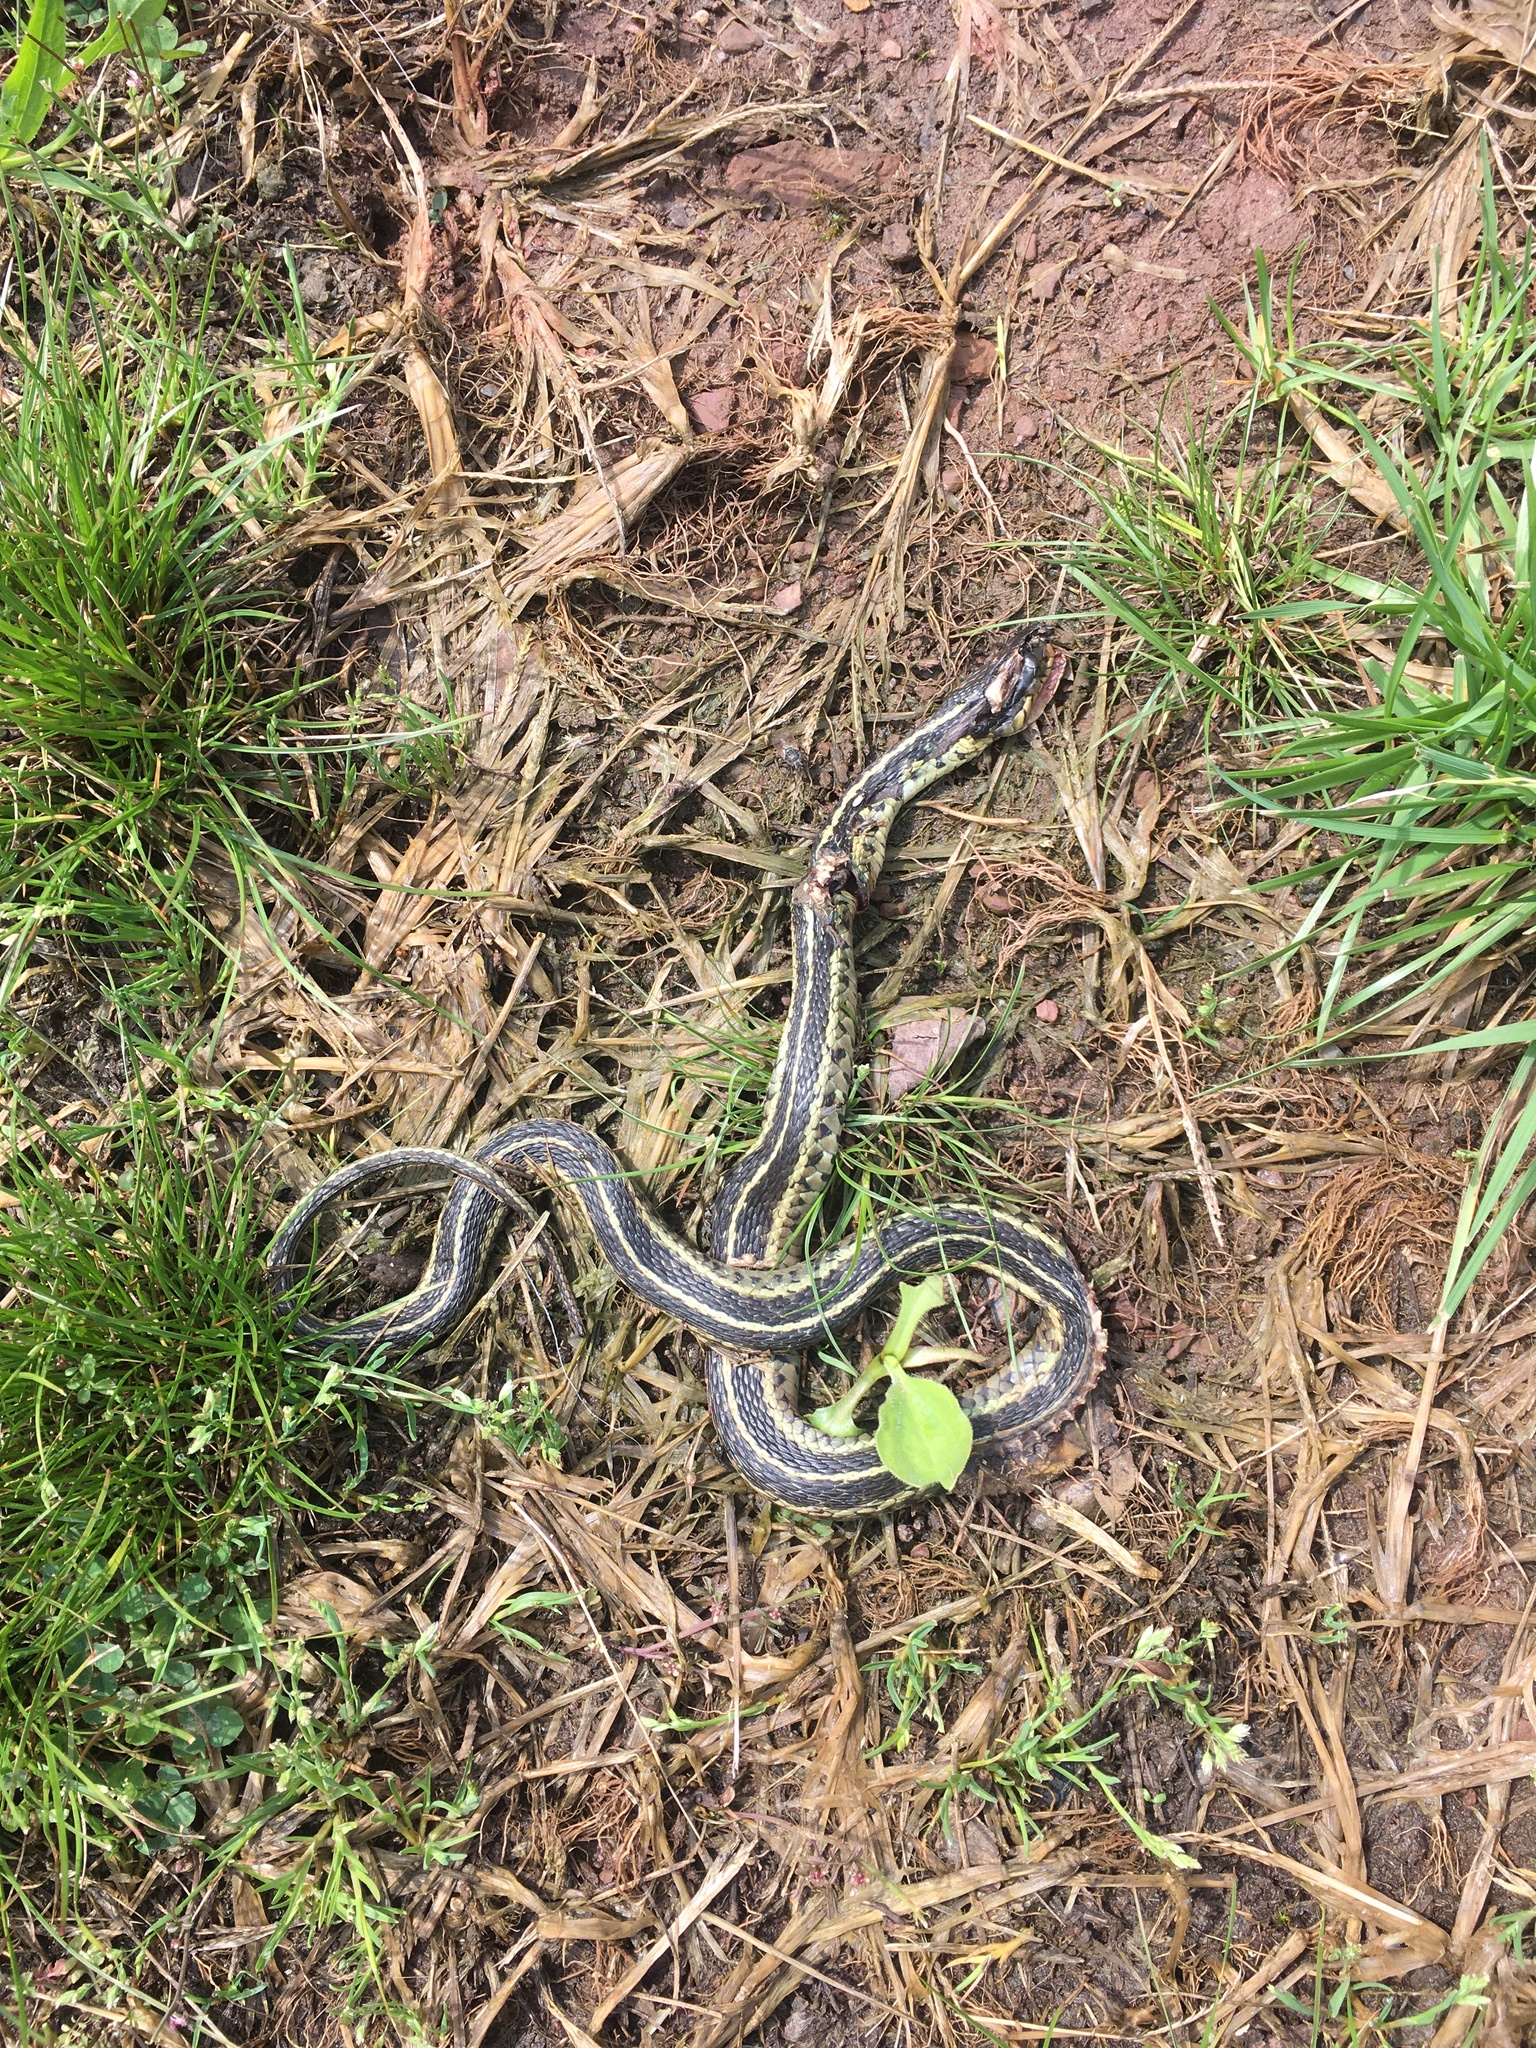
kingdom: Animalia
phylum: Chordata
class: Squamata
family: Colubridae
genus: Thamnophis
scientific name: Thamnophis sirtalis
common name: Common garter snake
